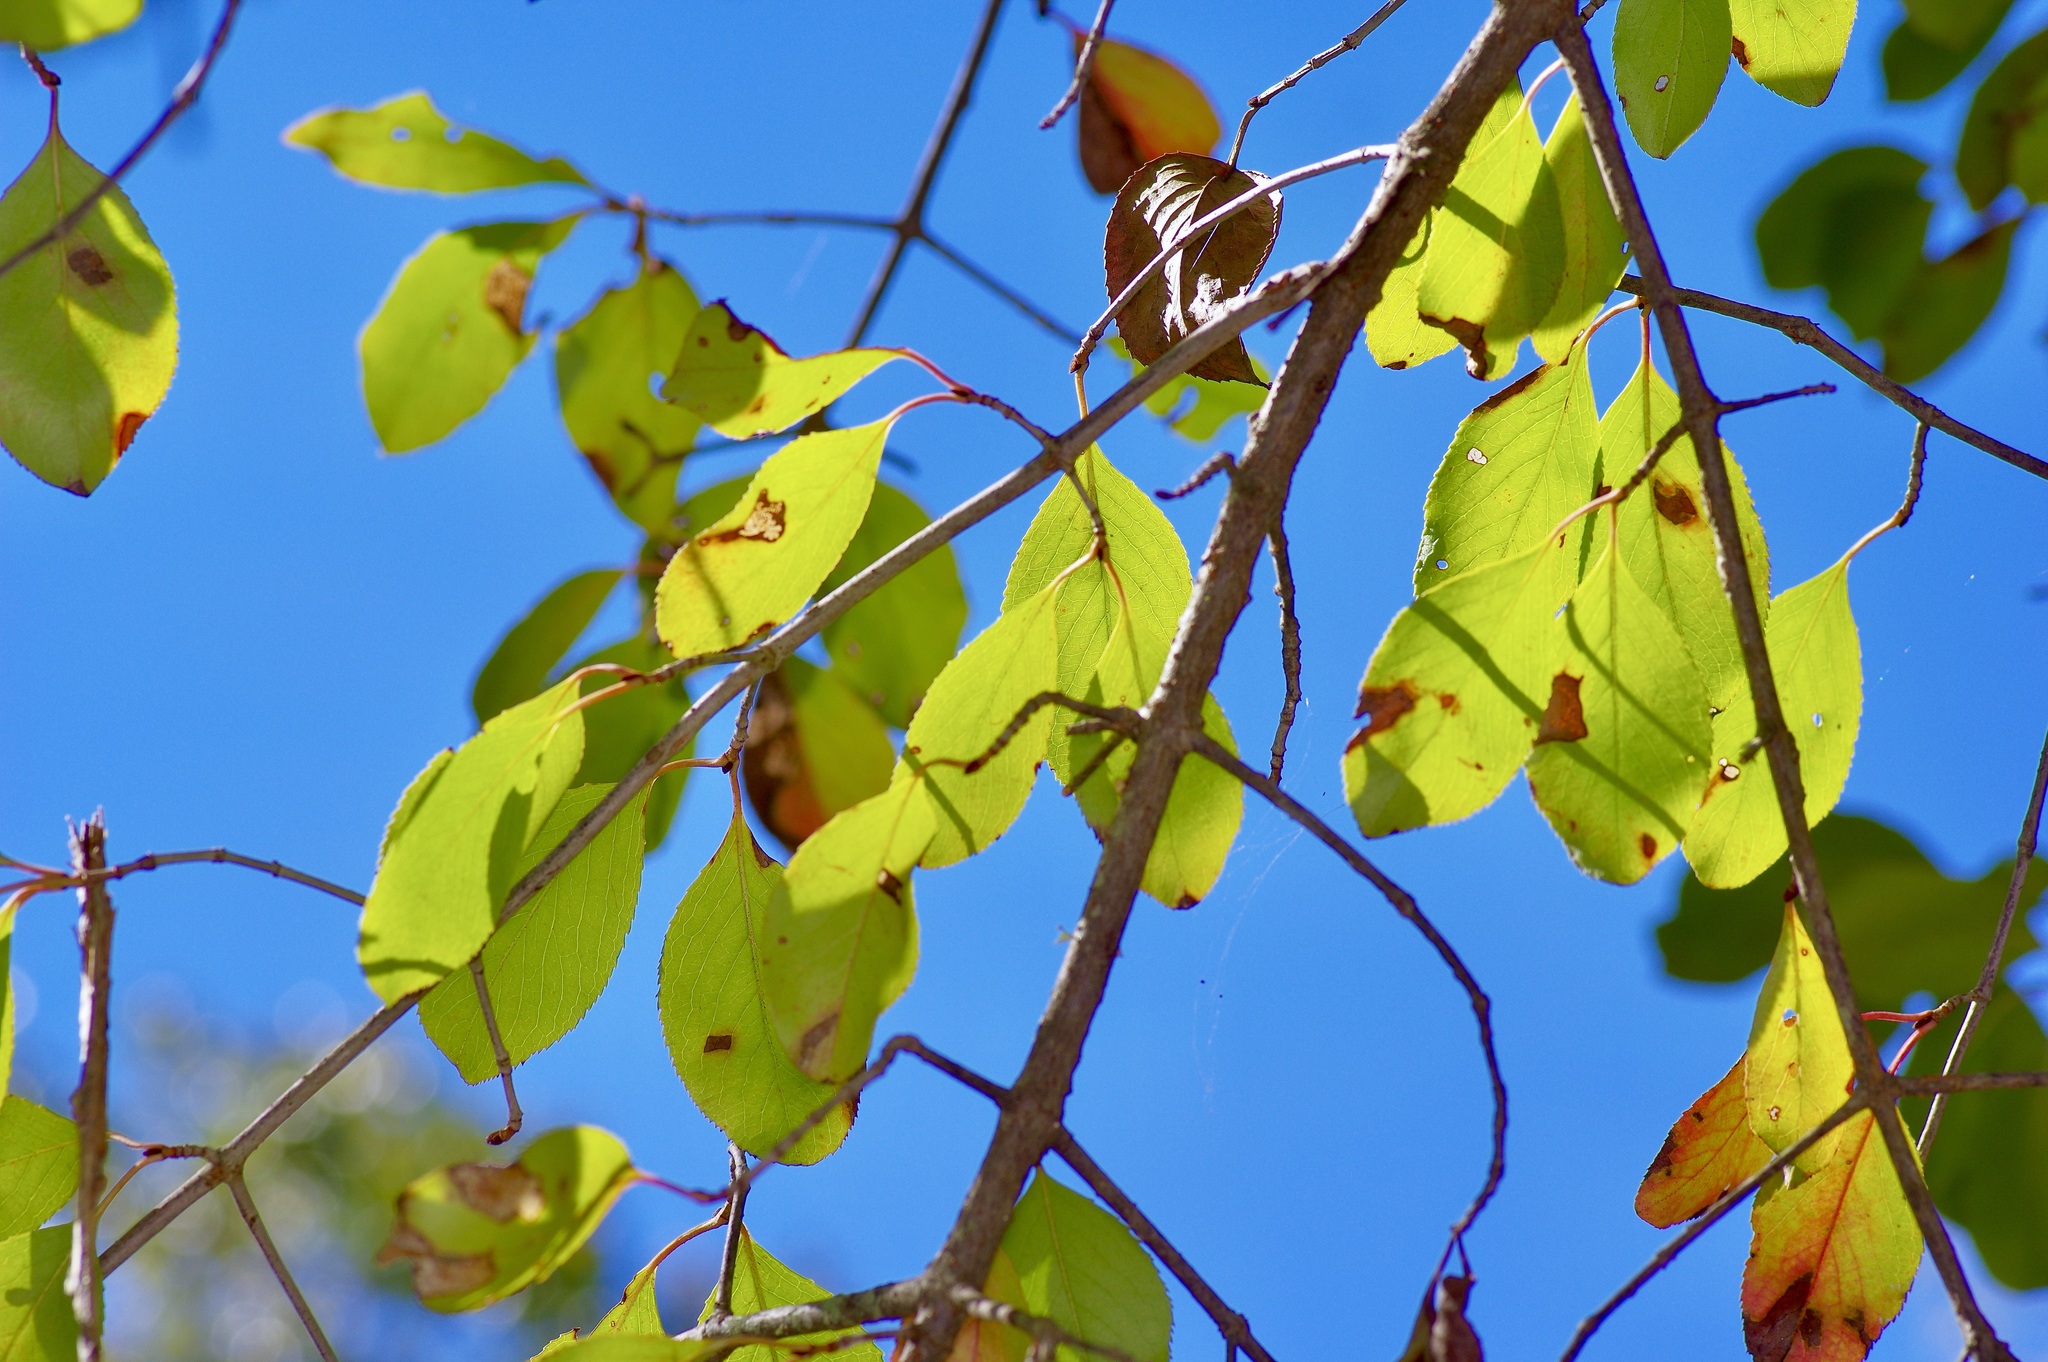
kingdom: Plantae
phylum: Tracheophyta
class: Magnoliopsida
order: Dipsacales
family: Viburnaceae
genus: Viburnum
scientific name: Viburnum rufidulum
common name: Blue haw
